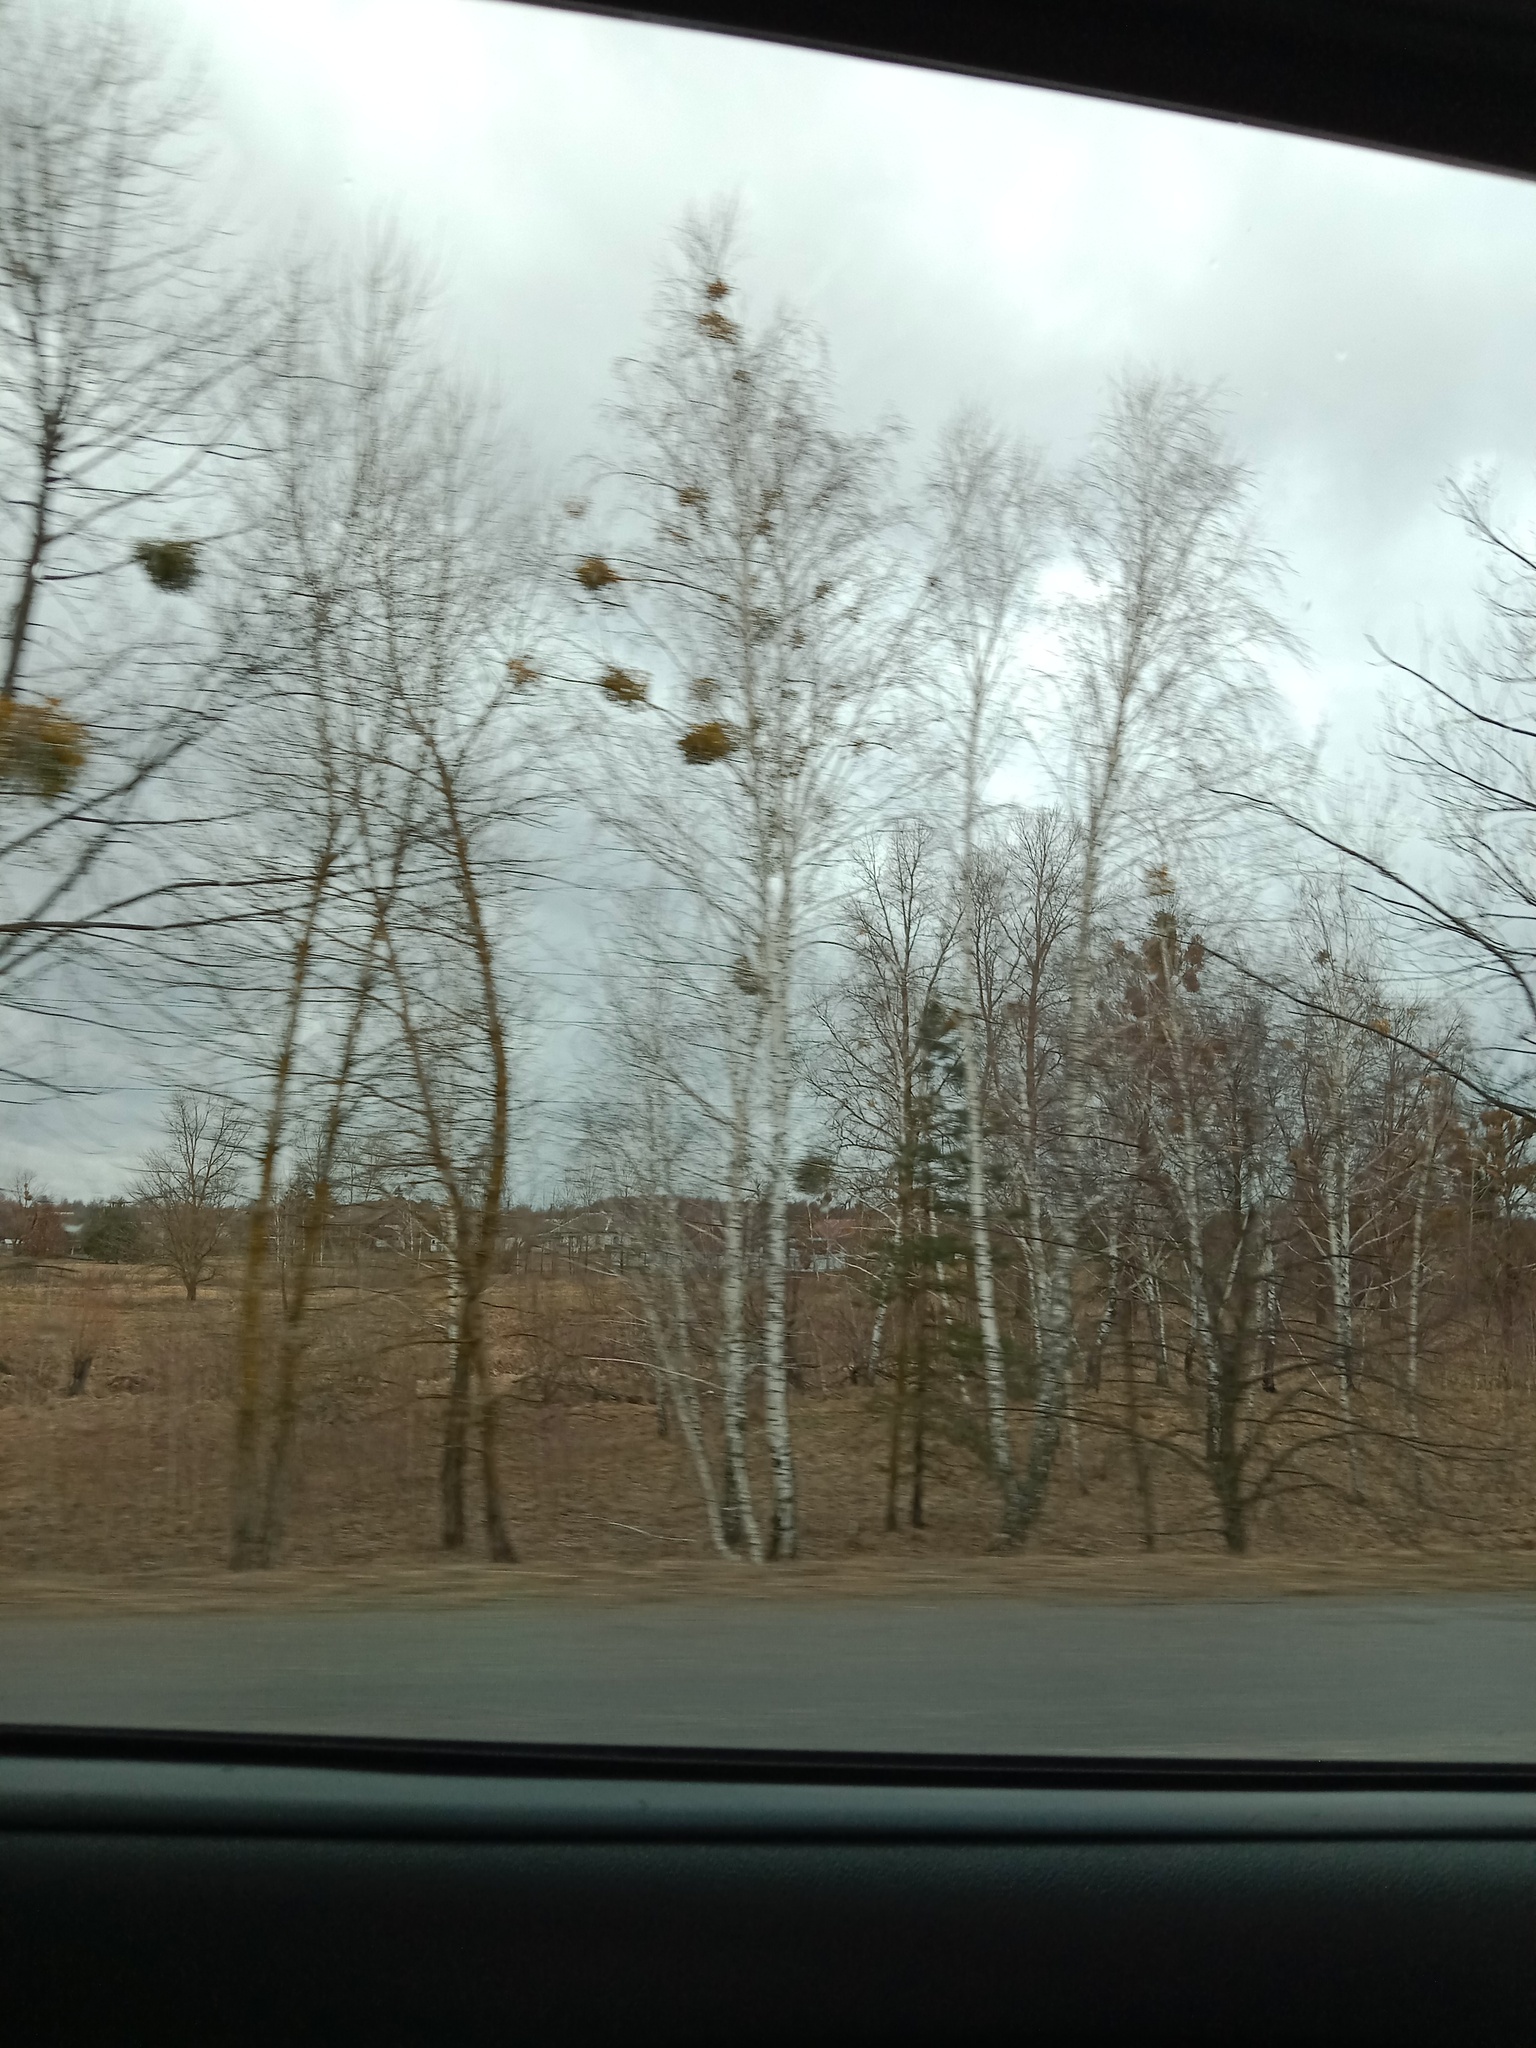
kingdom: Plantae
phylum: Tracheophyta
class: Magnoliopsida
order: Santalales
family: Viscaceae
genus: Viscum
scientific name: Viscum album
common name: Mistletoe
